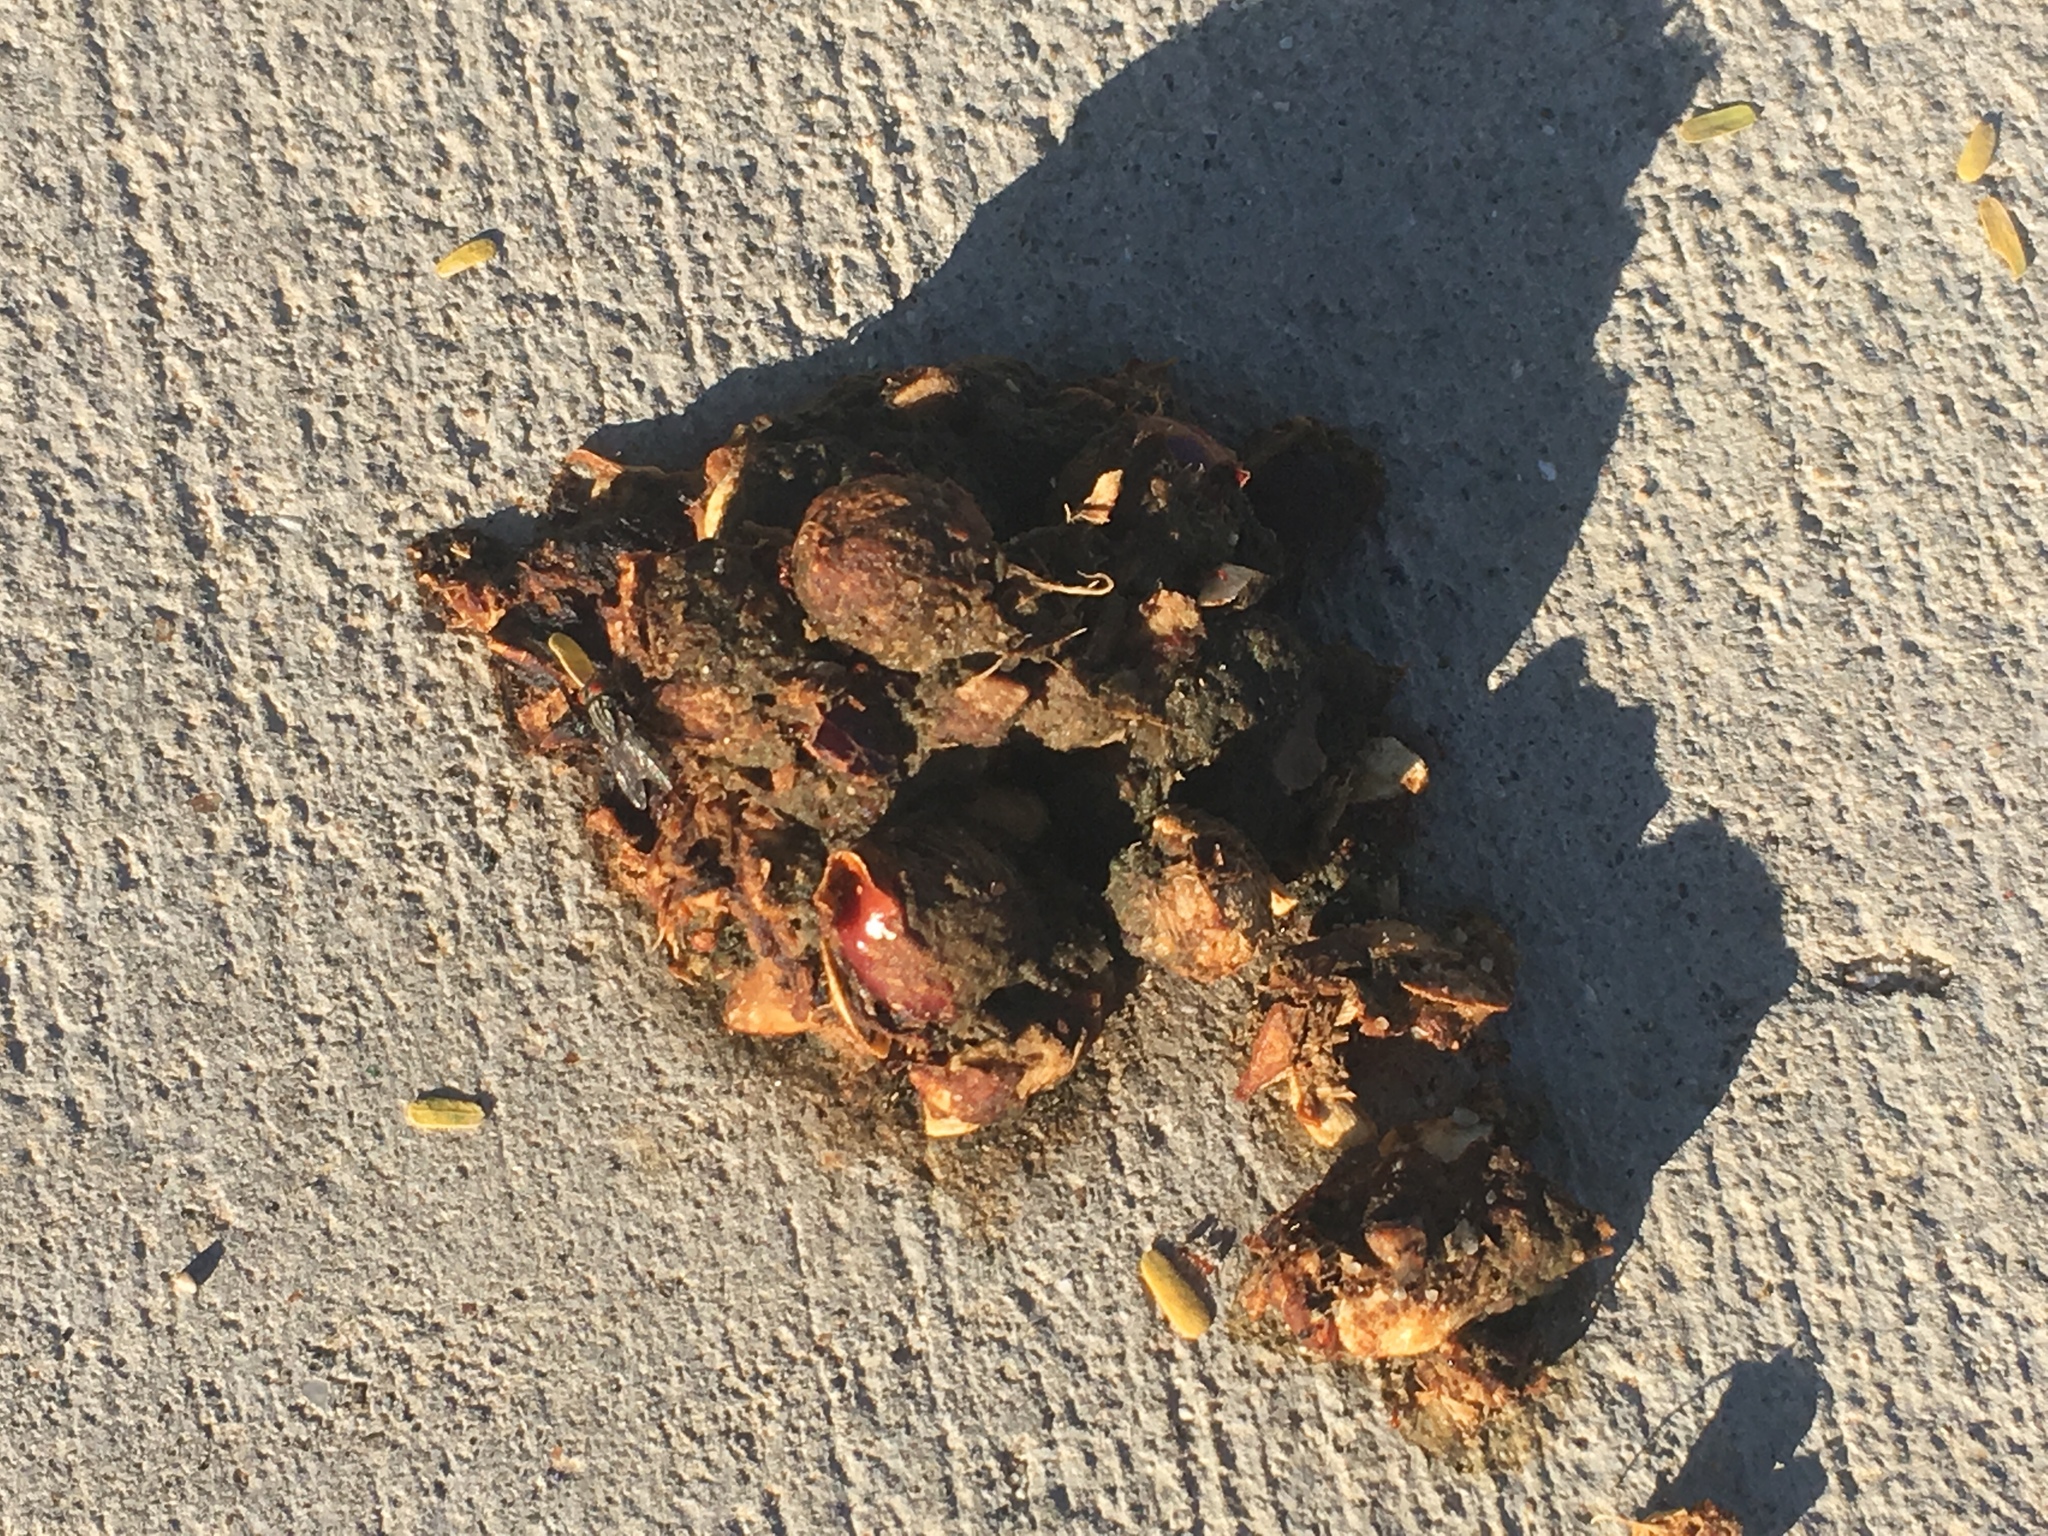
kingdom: Animalia
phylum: Chordata
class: Mammalia
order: Carnivora
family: Canidae
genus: Canis
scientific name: Canis latrans
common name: Coyote
